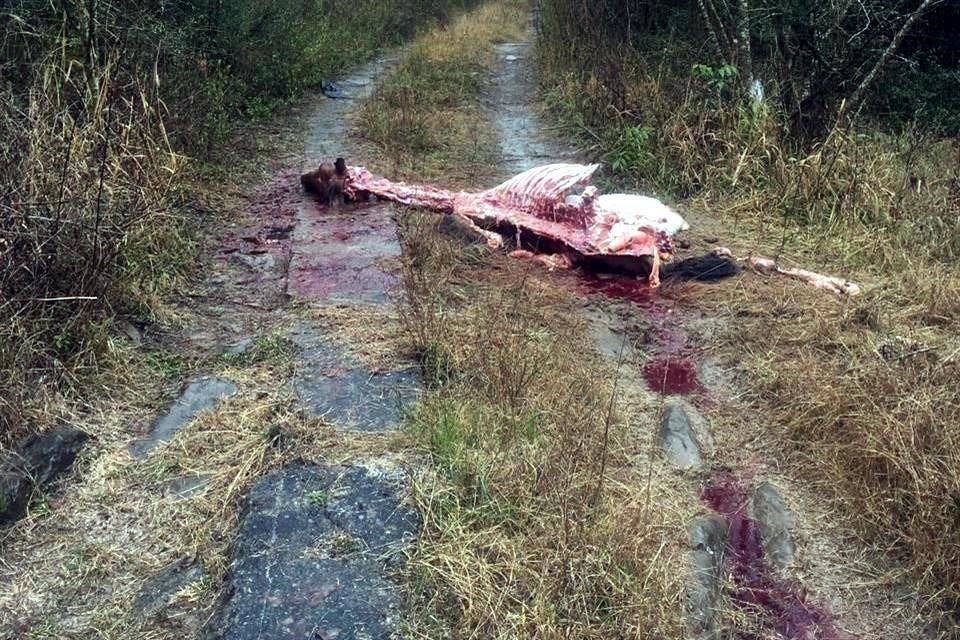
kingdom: Animalia
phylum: Chordata
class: Mammalia
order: Perissodactyla
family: Equidae
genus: Equus
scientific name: Equus caballus
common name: Horse
